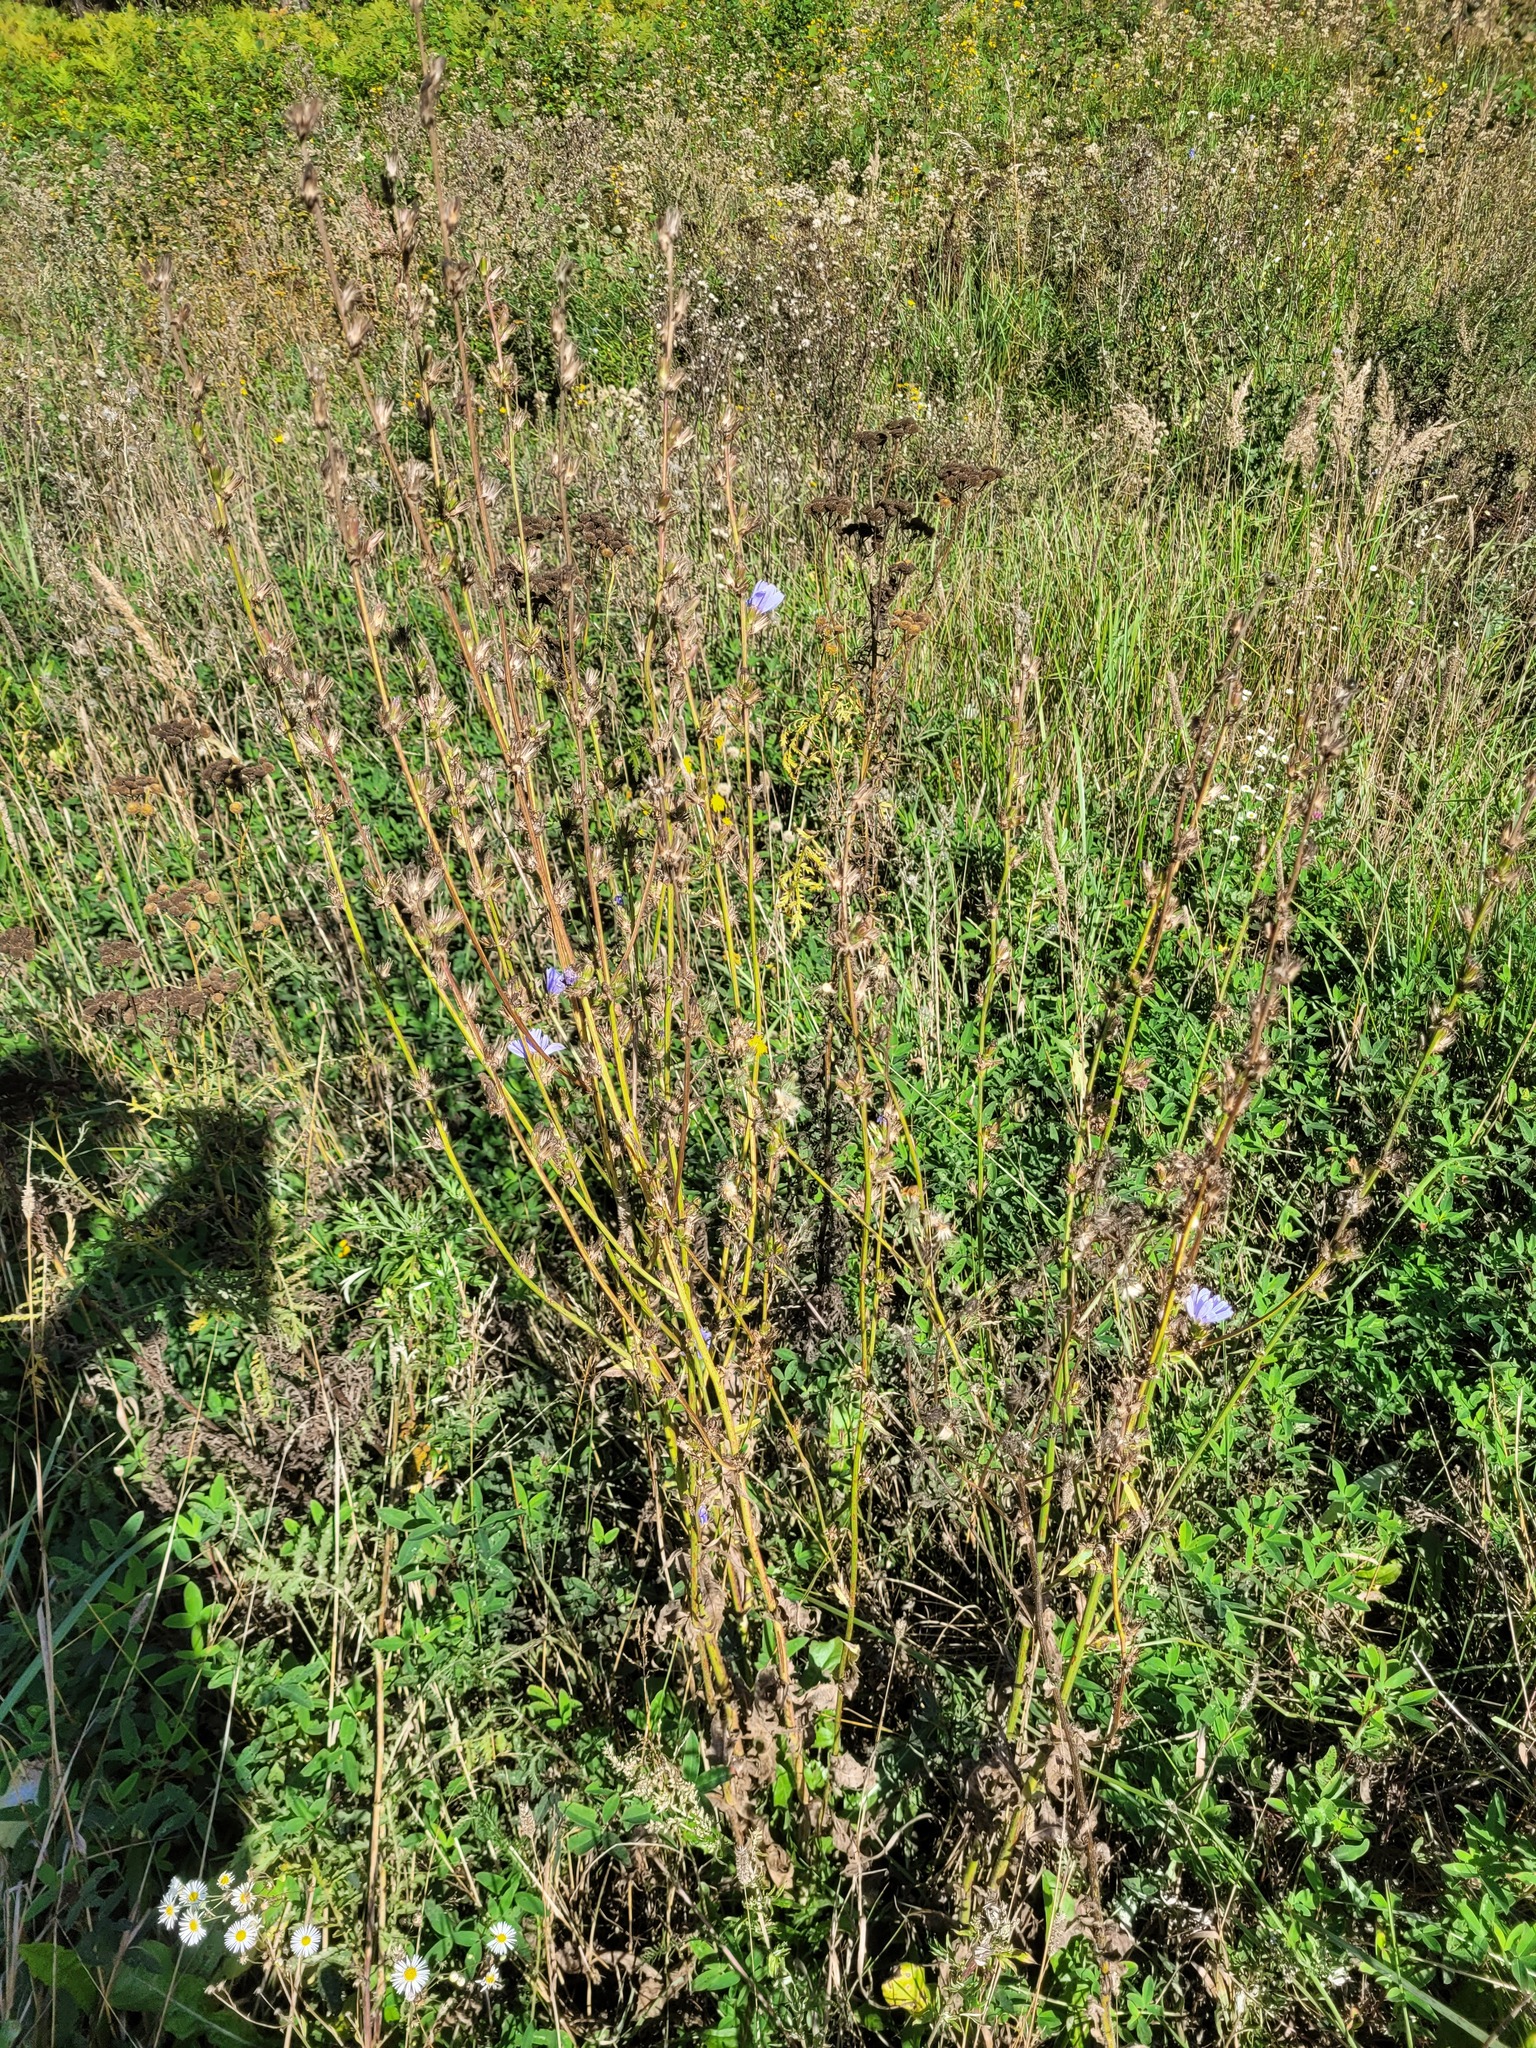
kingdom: Plantae
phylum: Tracheophyta
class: Magnoliopsida
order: Asterales
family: Asteraceae
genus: Cichorium
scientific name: Cichorium intybus
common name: Chicory
